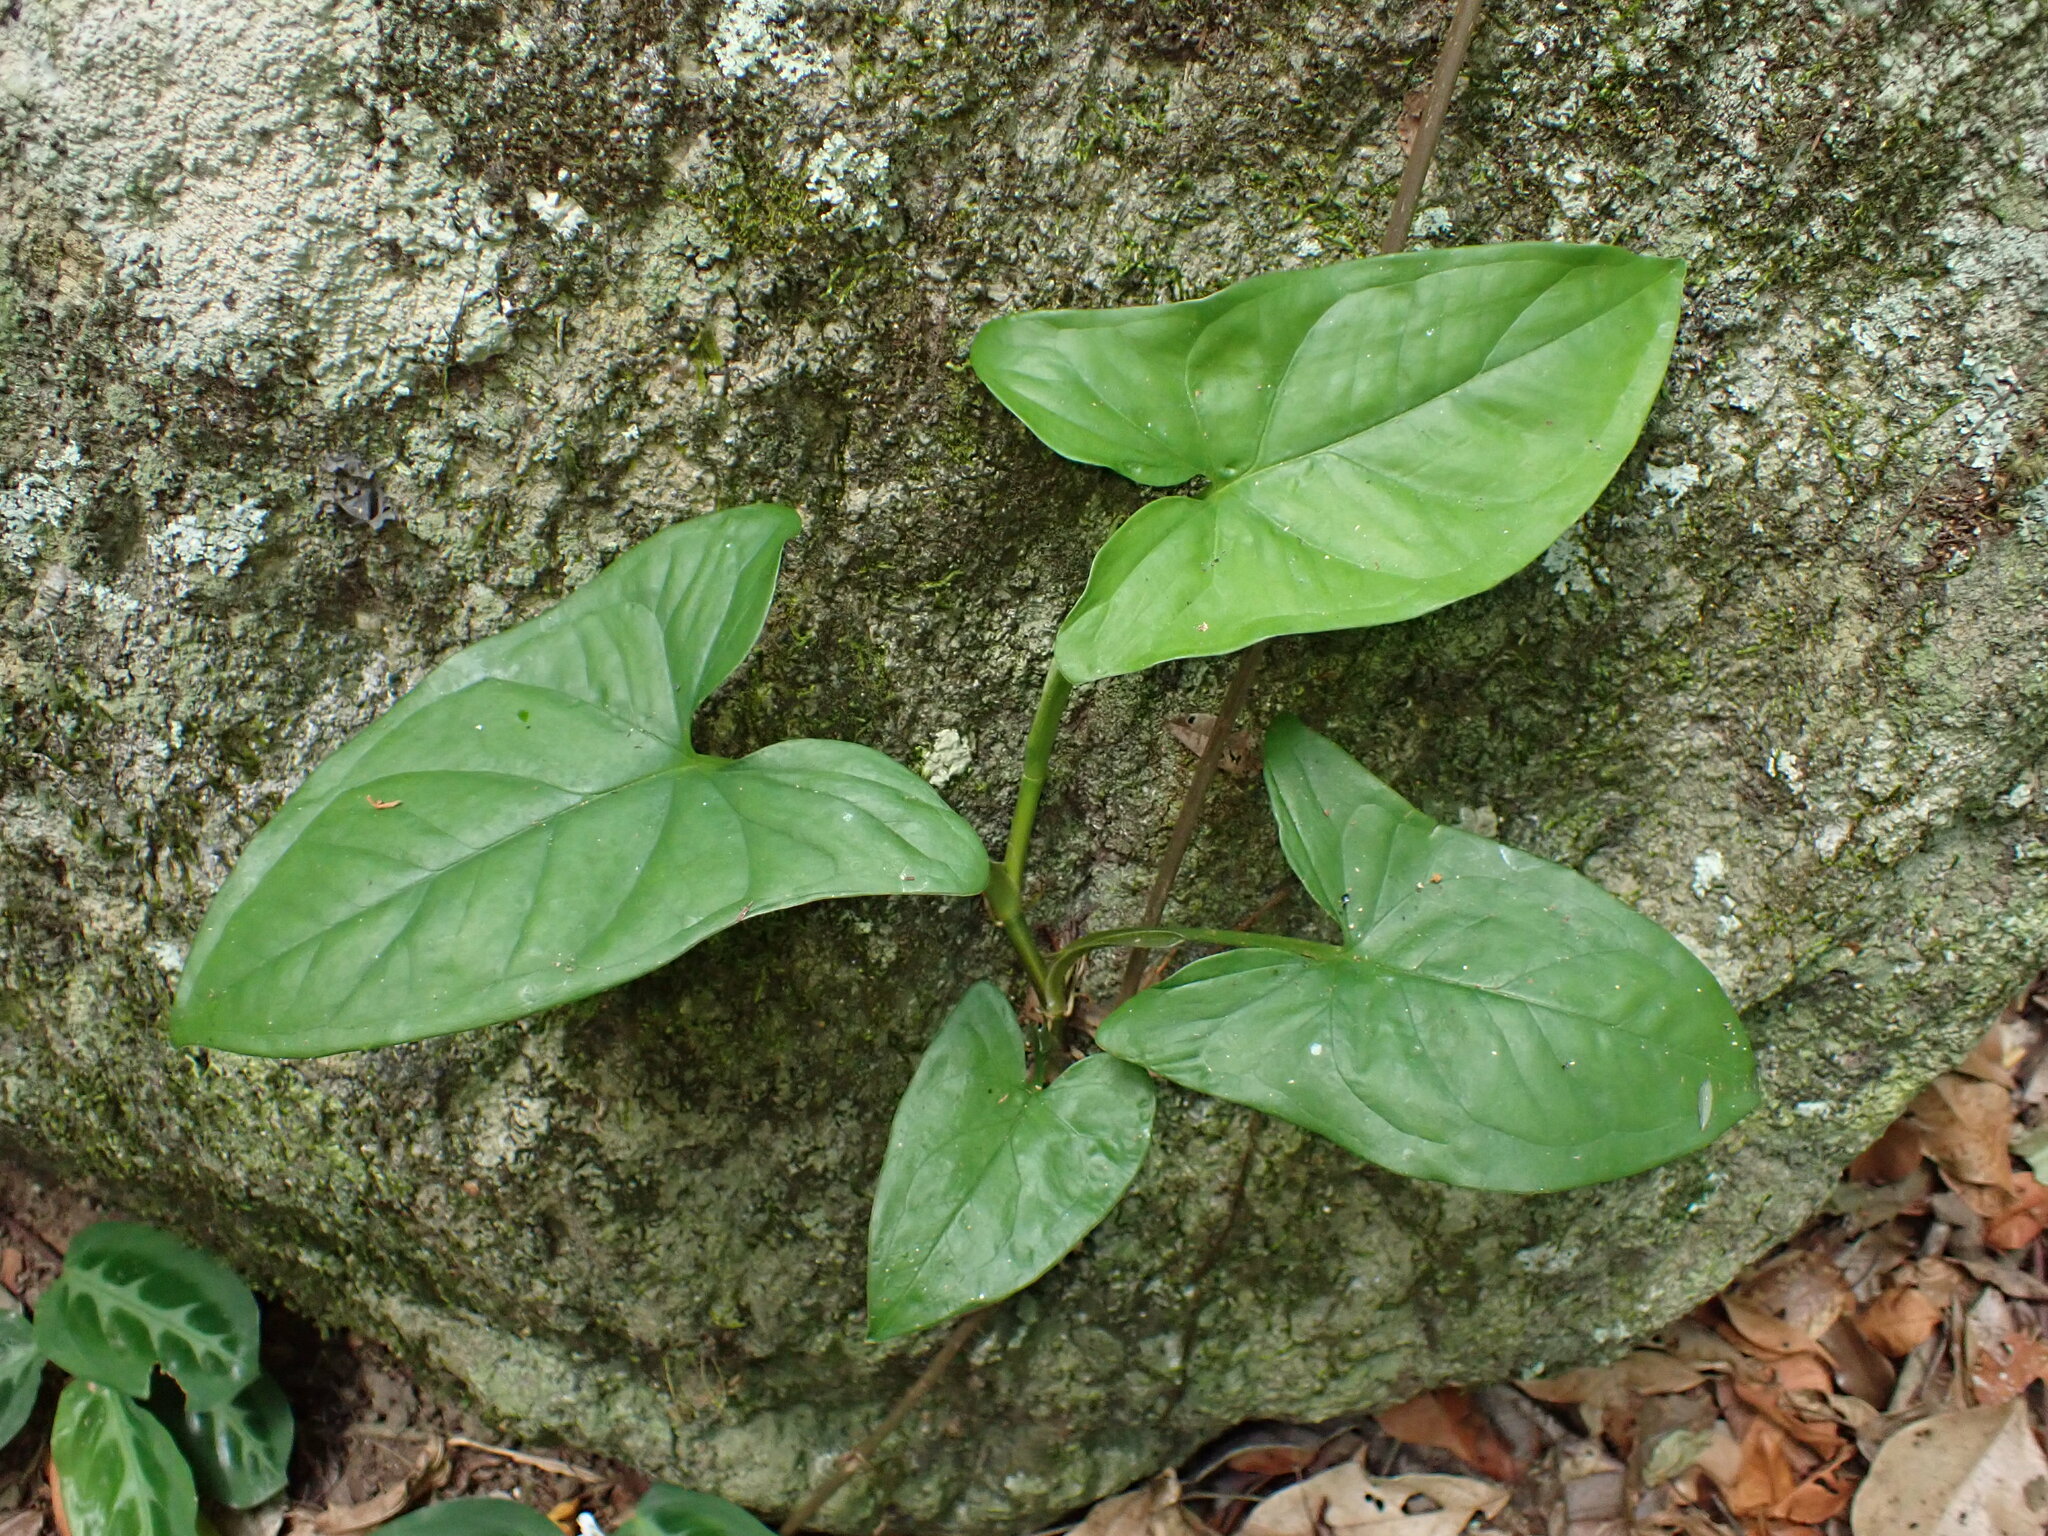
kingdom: Plantae
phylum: Tracheophyta
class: Liliopsida
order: Alismatales
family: Araceae
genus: Syngonium
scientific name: Syngonium podophyllum
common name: American evergreen
